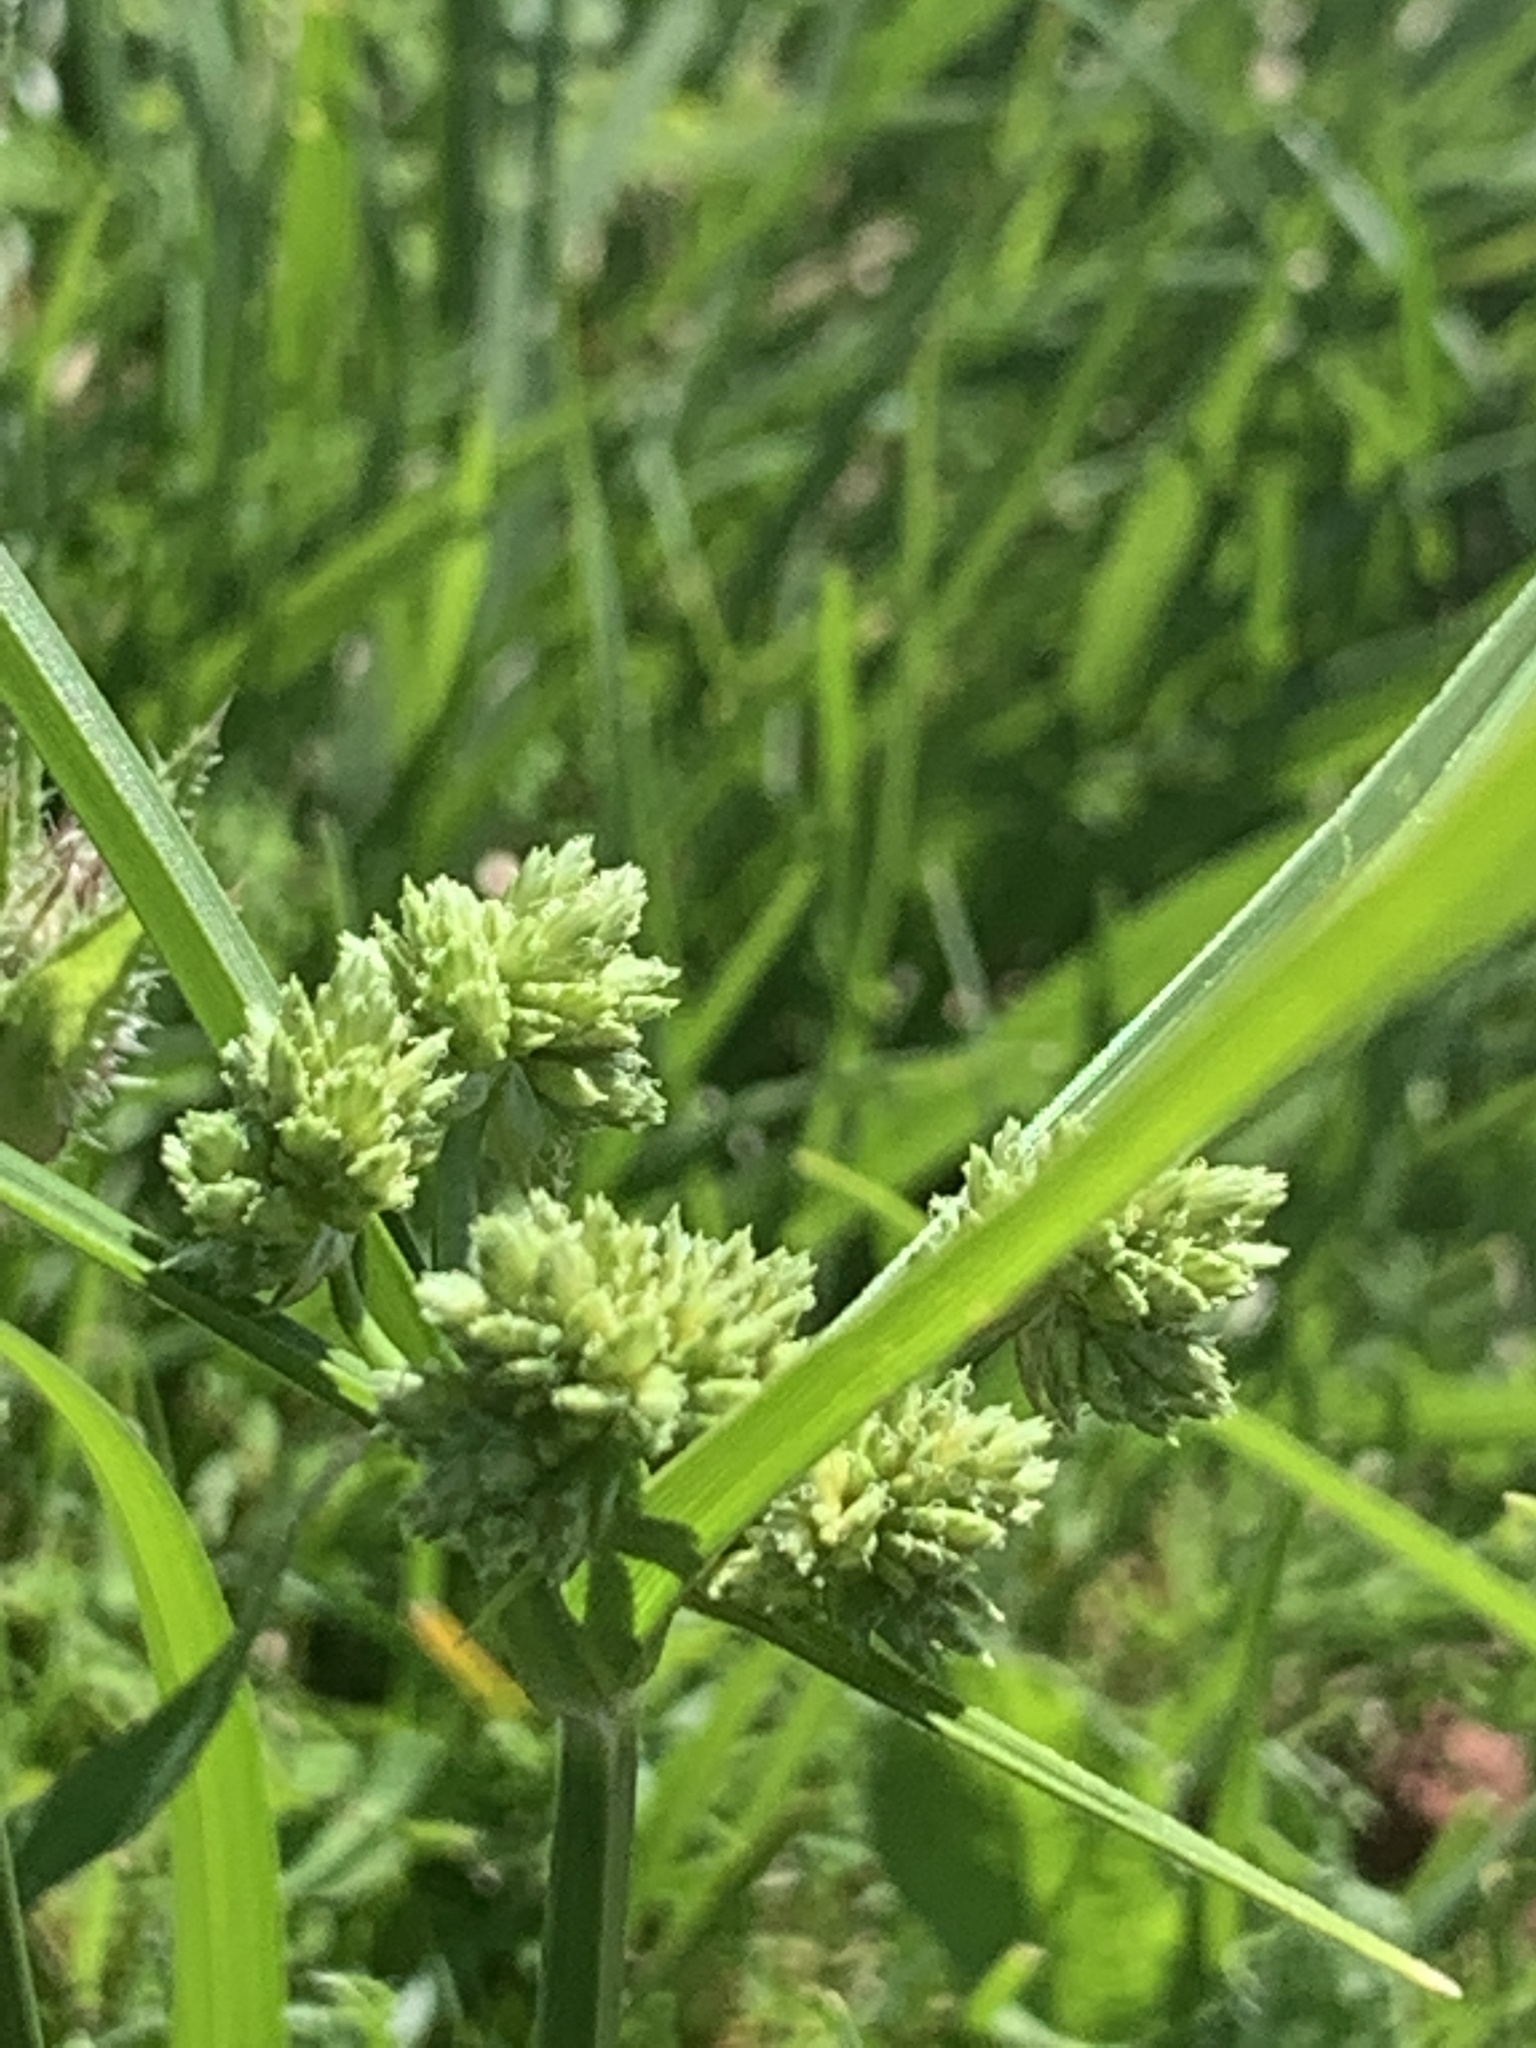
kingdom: Plantae
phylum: Tracheophyta
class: Liliopsida
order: Poales
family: Cyperaceae
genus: Cyperus
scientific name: Cyperus eragrostis
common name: Tall flatsedge
